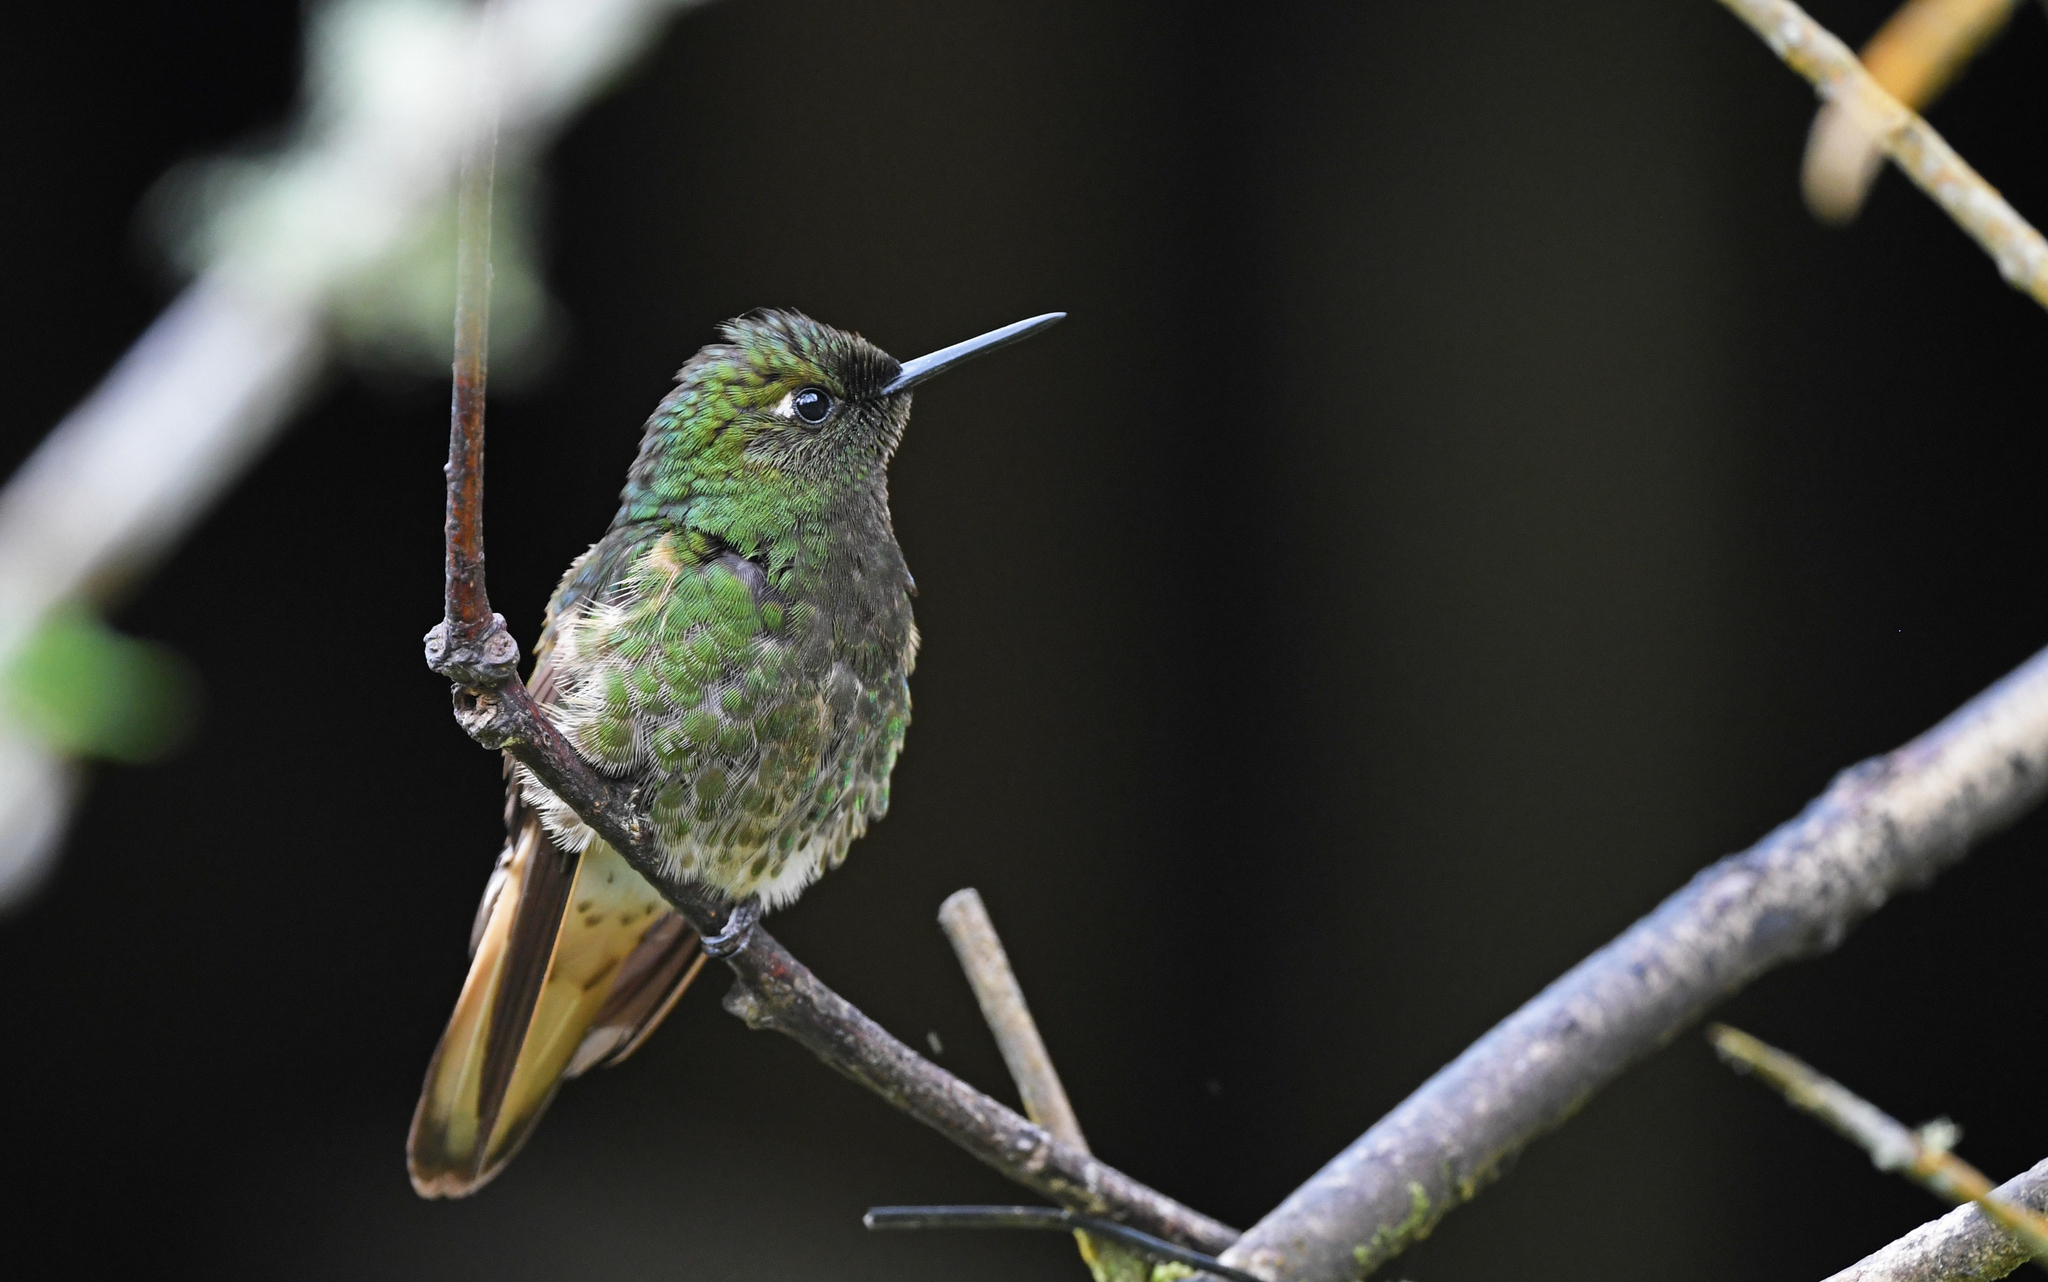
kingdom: Animalia
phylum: Chordata
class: Aves
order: Apodiformes
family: Trochilidae
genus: Boissonneaua
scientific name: Boissonneaua flavescens
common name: Buff-tailed coronet
